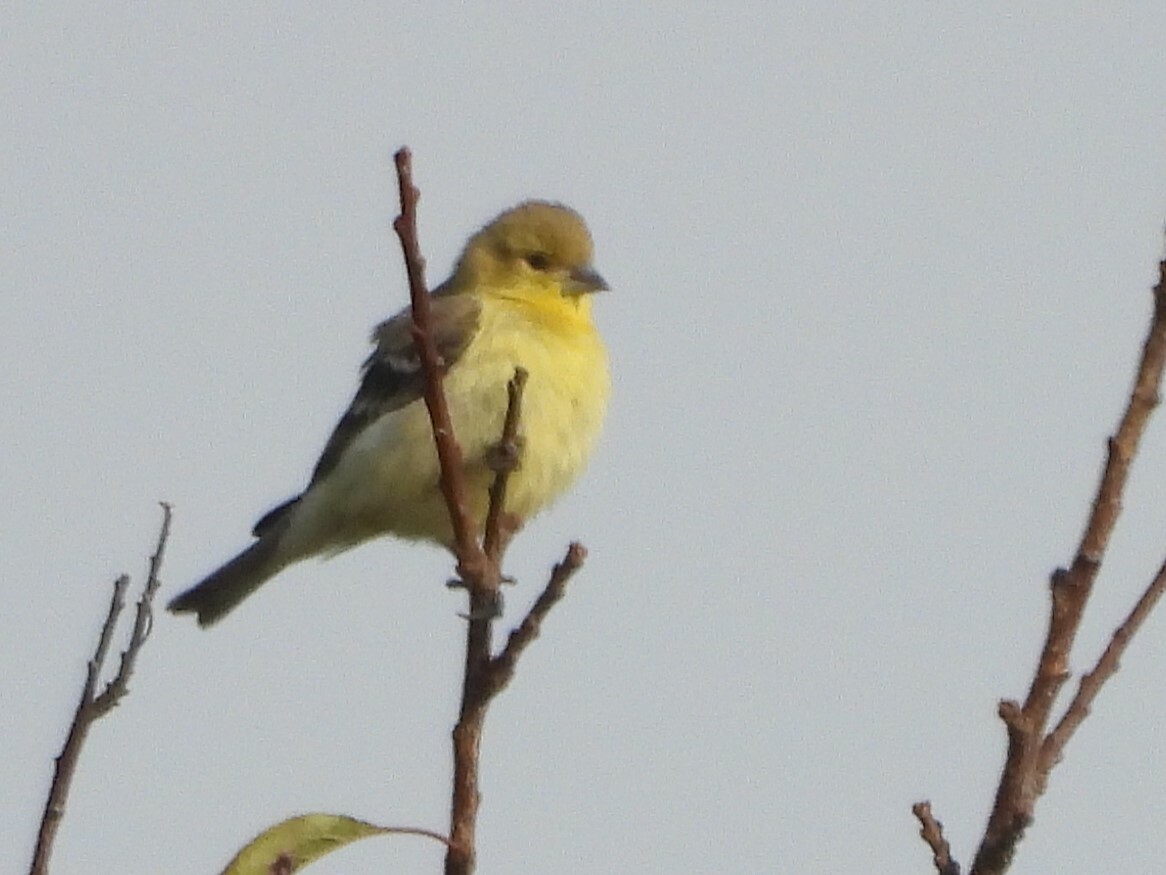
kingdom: Animalia
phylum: Chordata
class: Aves
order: Passeriformes
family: Fringillidae
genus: Spinus
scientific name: Spinus psaltria
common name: Lesser goldfinch
